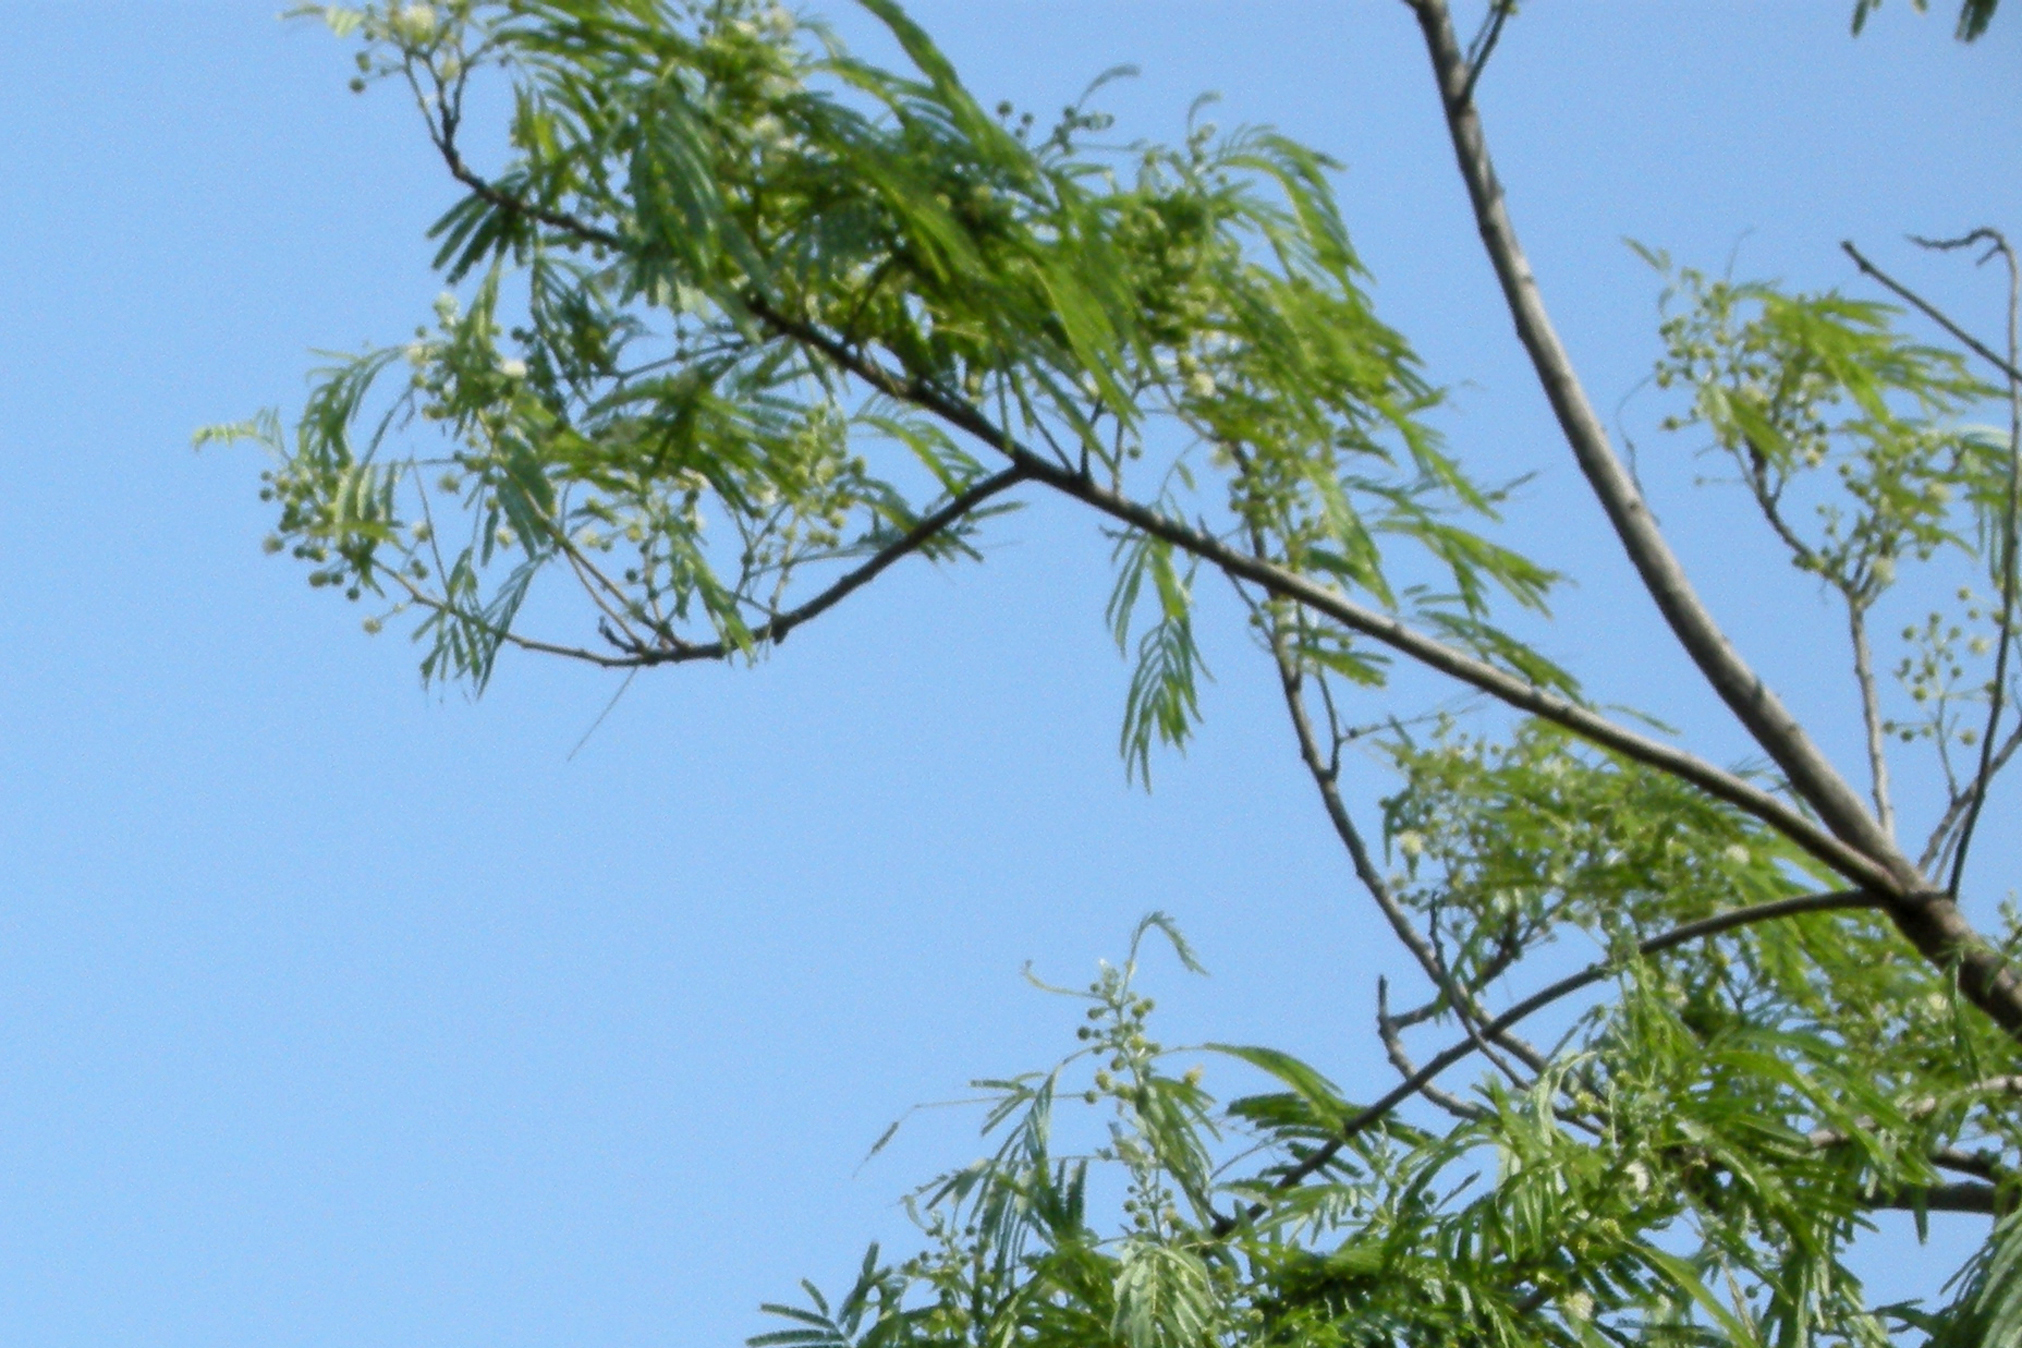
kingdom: Plantae
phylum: Tracheophyta
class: Magnoliopsida
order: Fabales
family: Fabaceae
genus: Leucaena
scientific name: Leucaena leucocephala
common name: White leadtree
